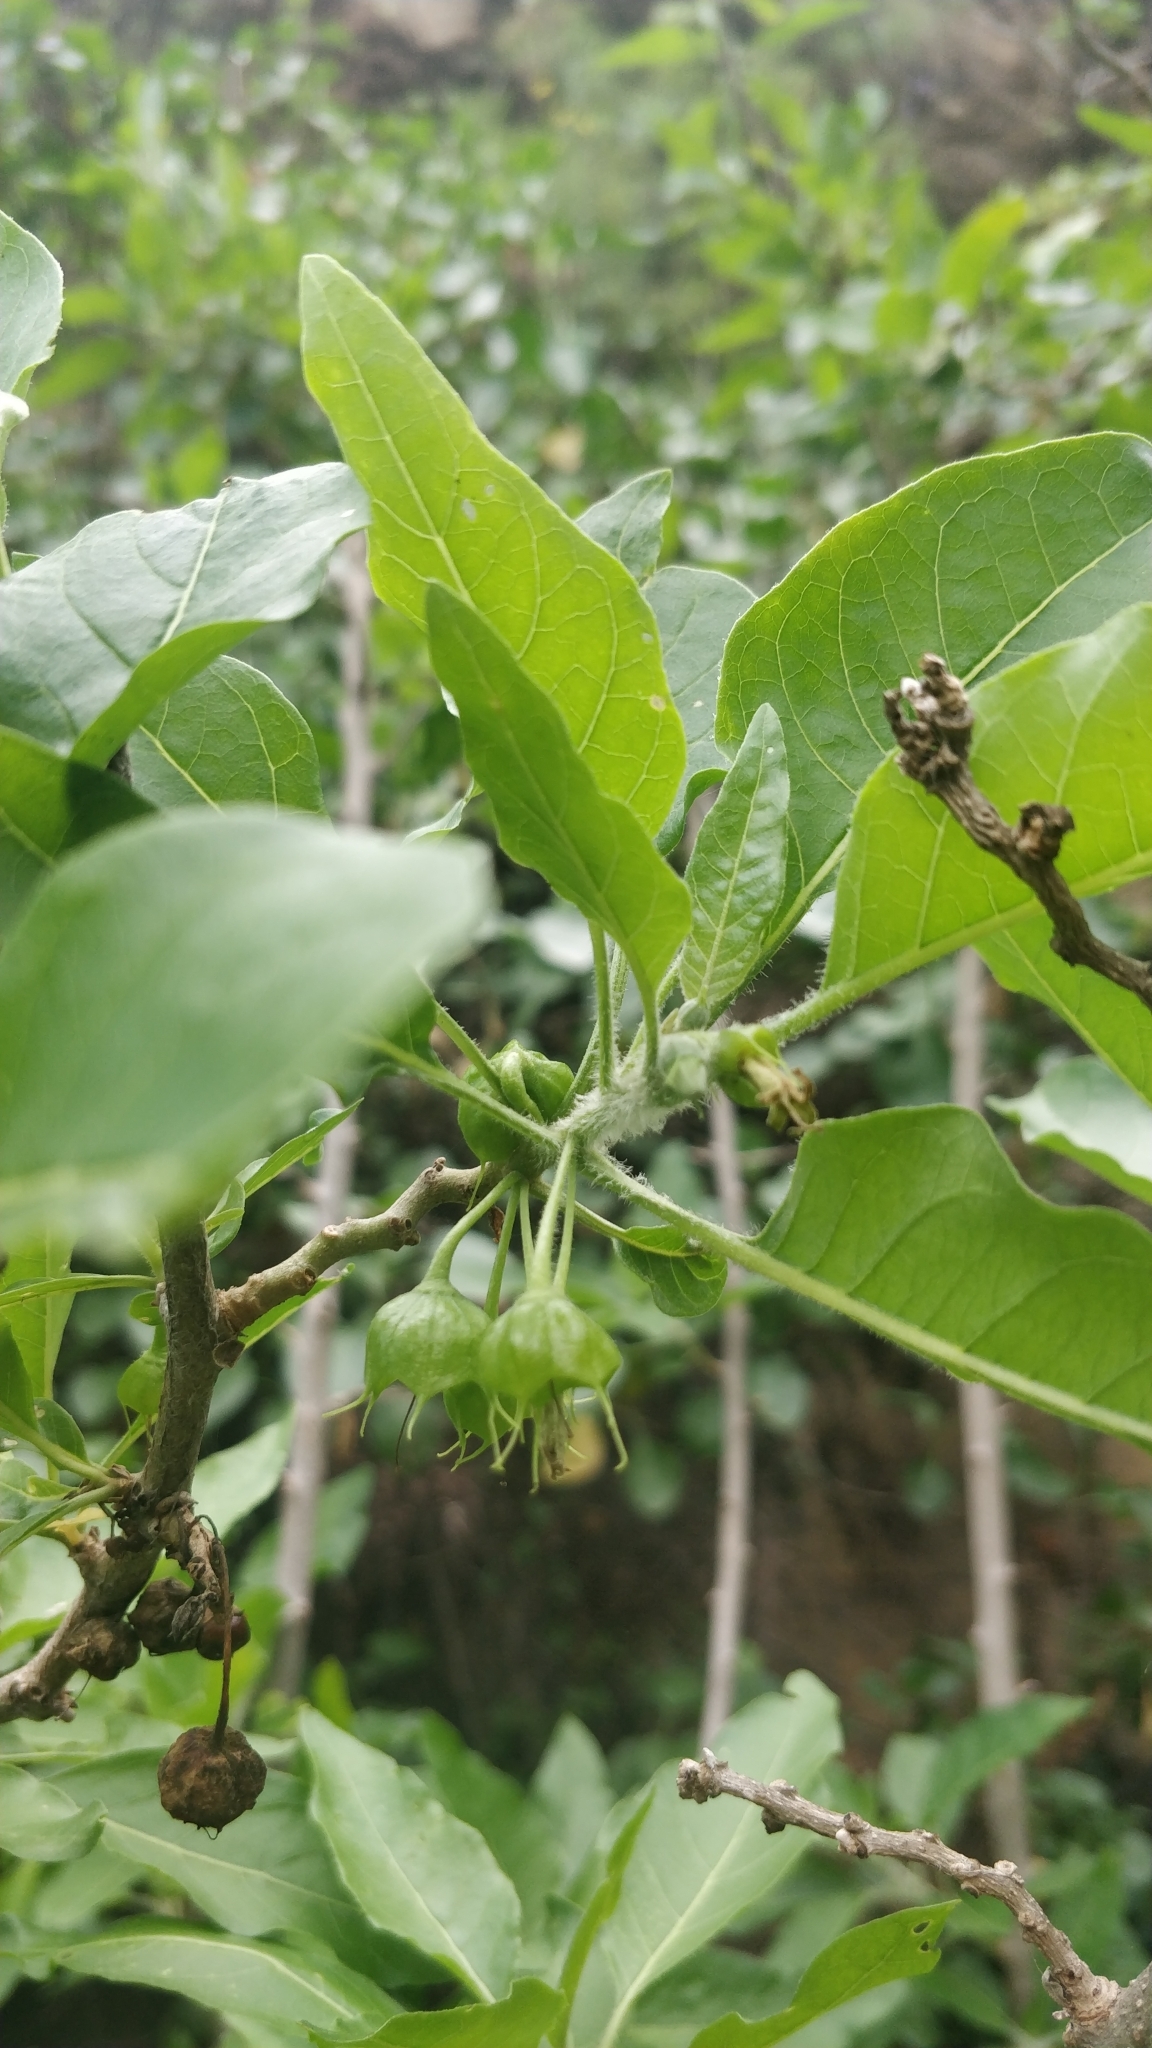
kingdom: Plantae
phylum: Tracheophyta
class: Magnoliopsida
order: Solanales
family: Solanaceae
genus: Withania
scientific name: Withania aristata
